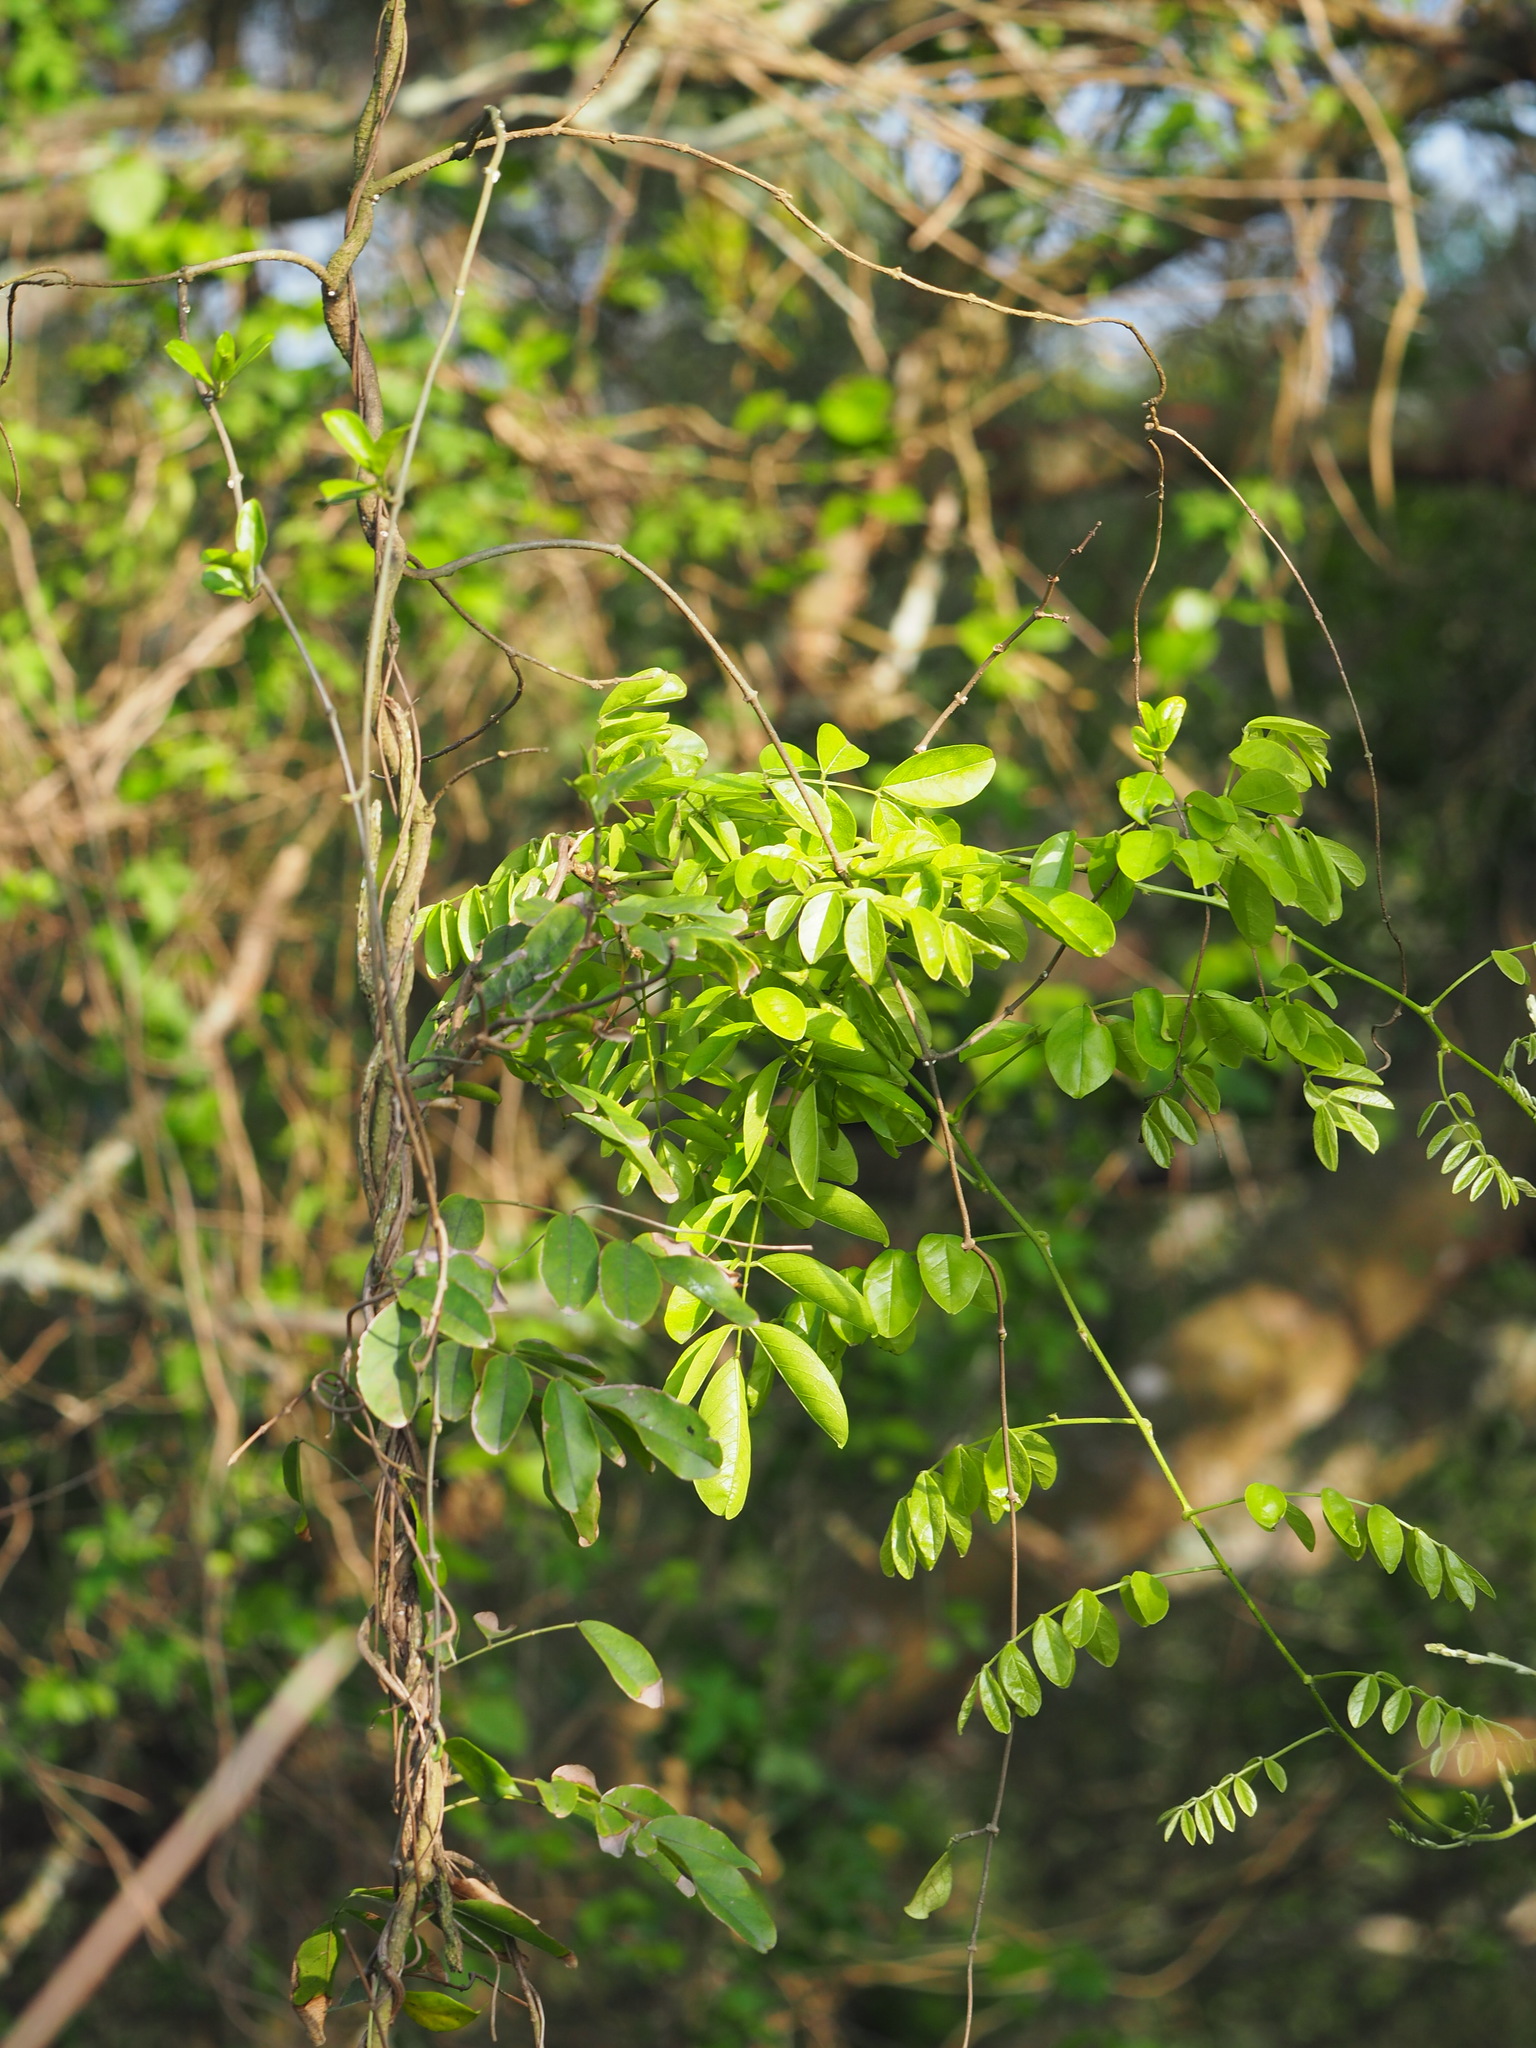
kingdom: Plantae
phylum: Tracheophyta
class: Magnoliopsida
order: Fabales
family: Fabaceae
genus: Wisteriopsis
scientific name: Wisteriopsis reticulata
